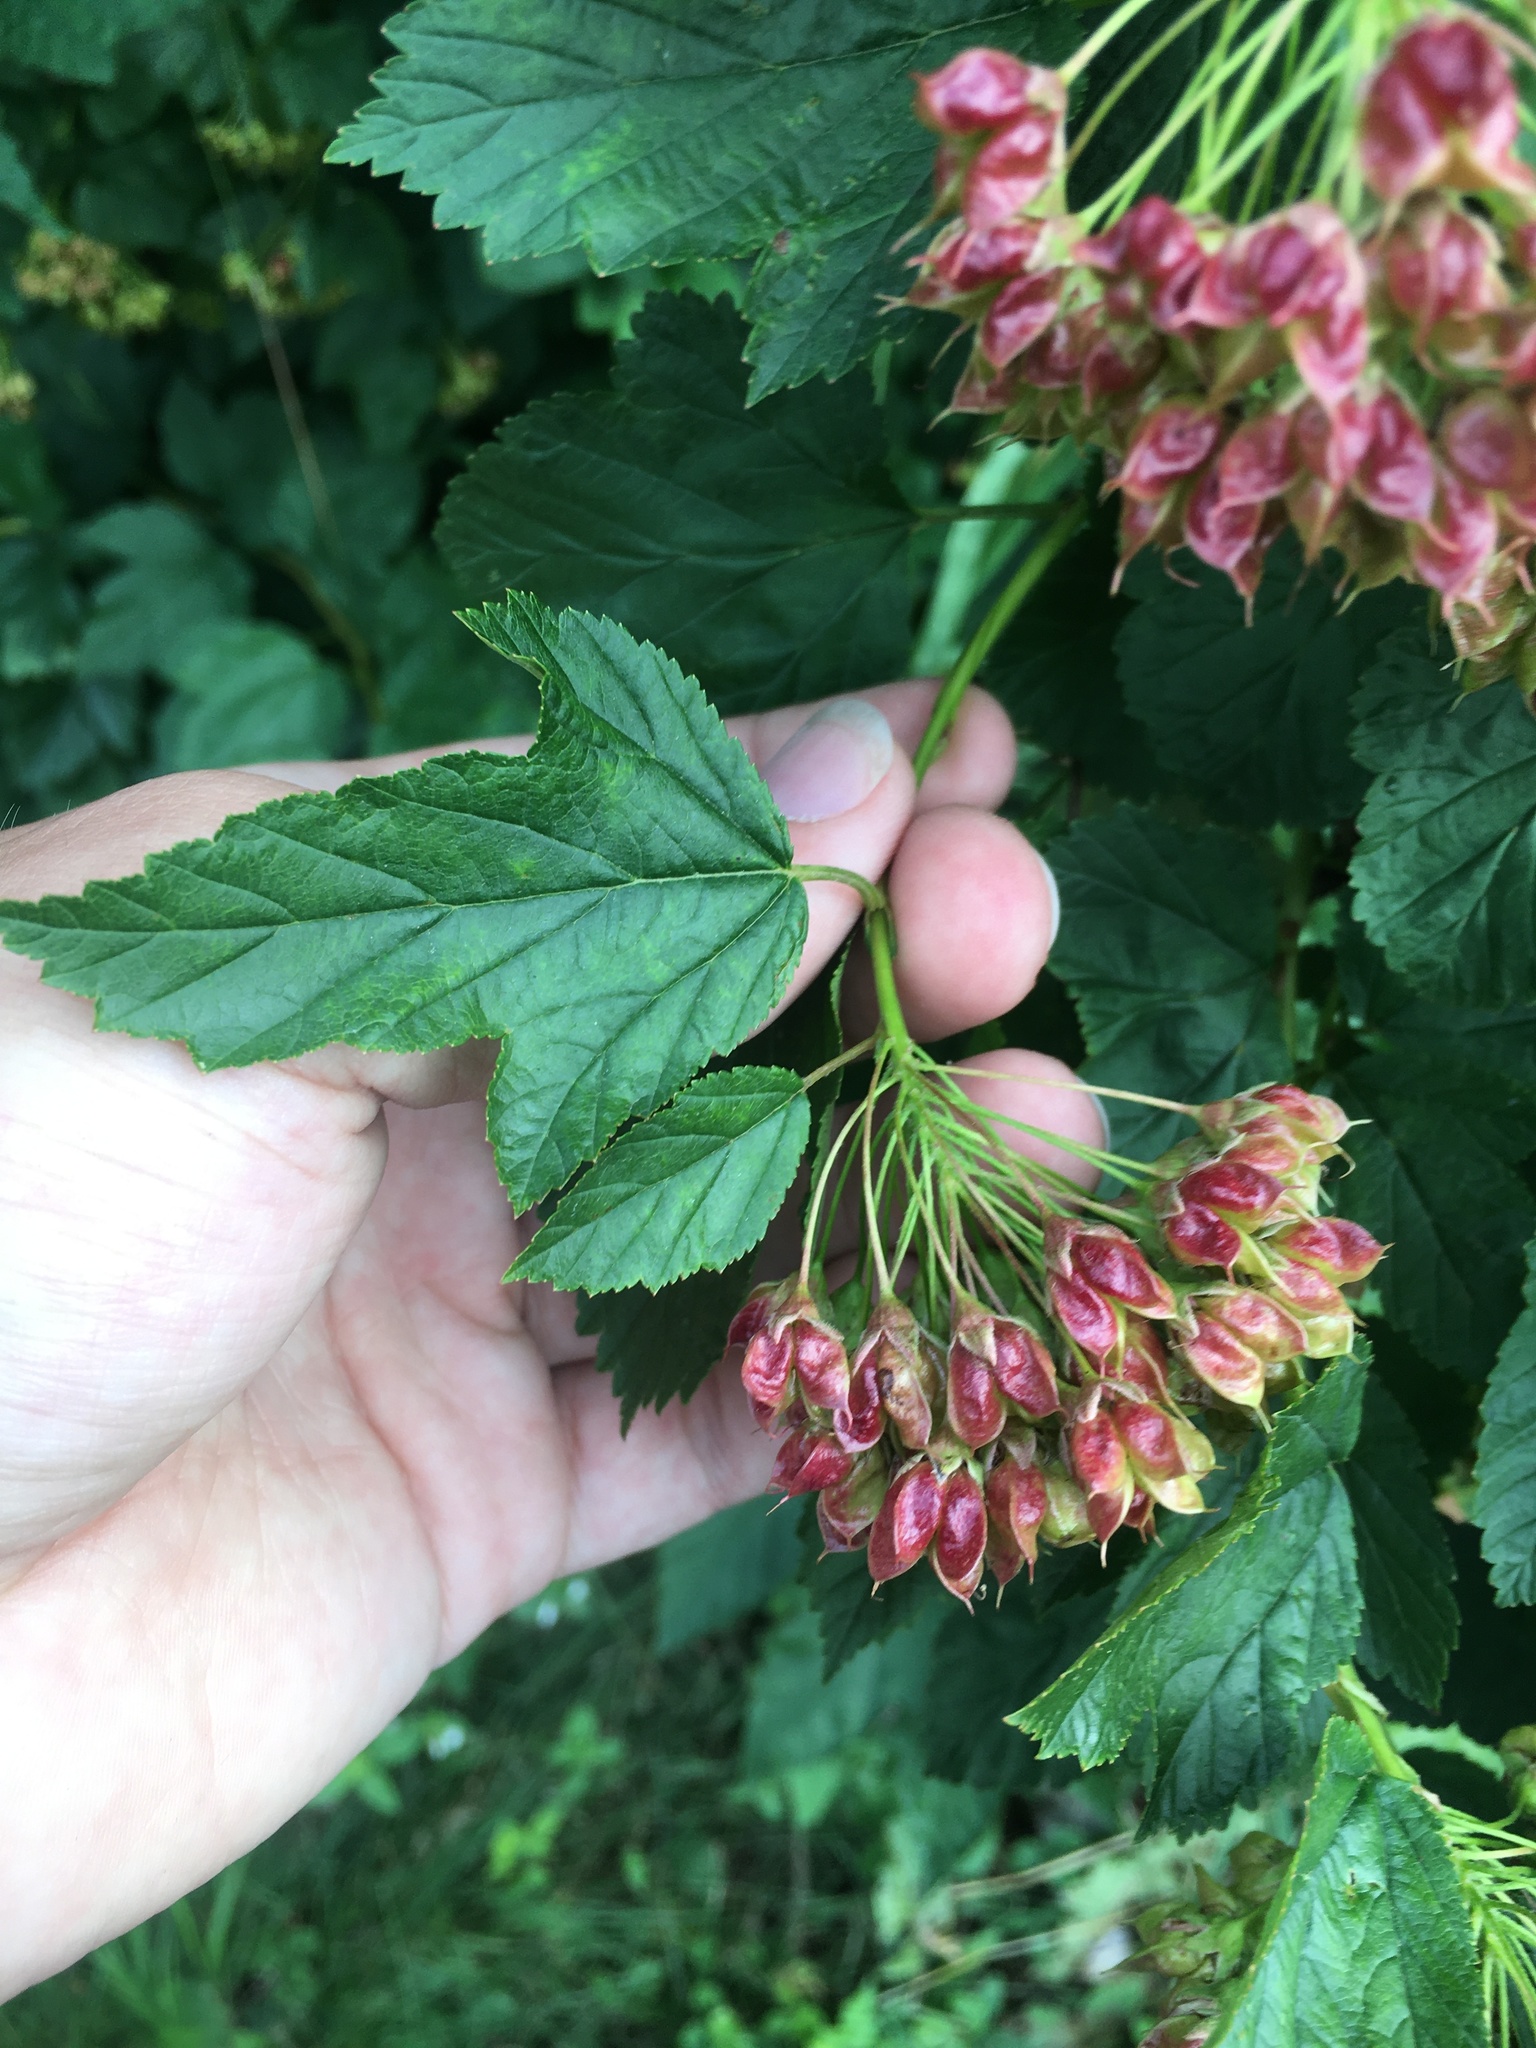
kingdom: Plantae
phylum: Tracheophyta
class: Magnoliopsida
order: Rosales
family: Rosaceae
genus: Physocarpus
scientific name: Physocarpus opulifolius
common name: Ninebark
